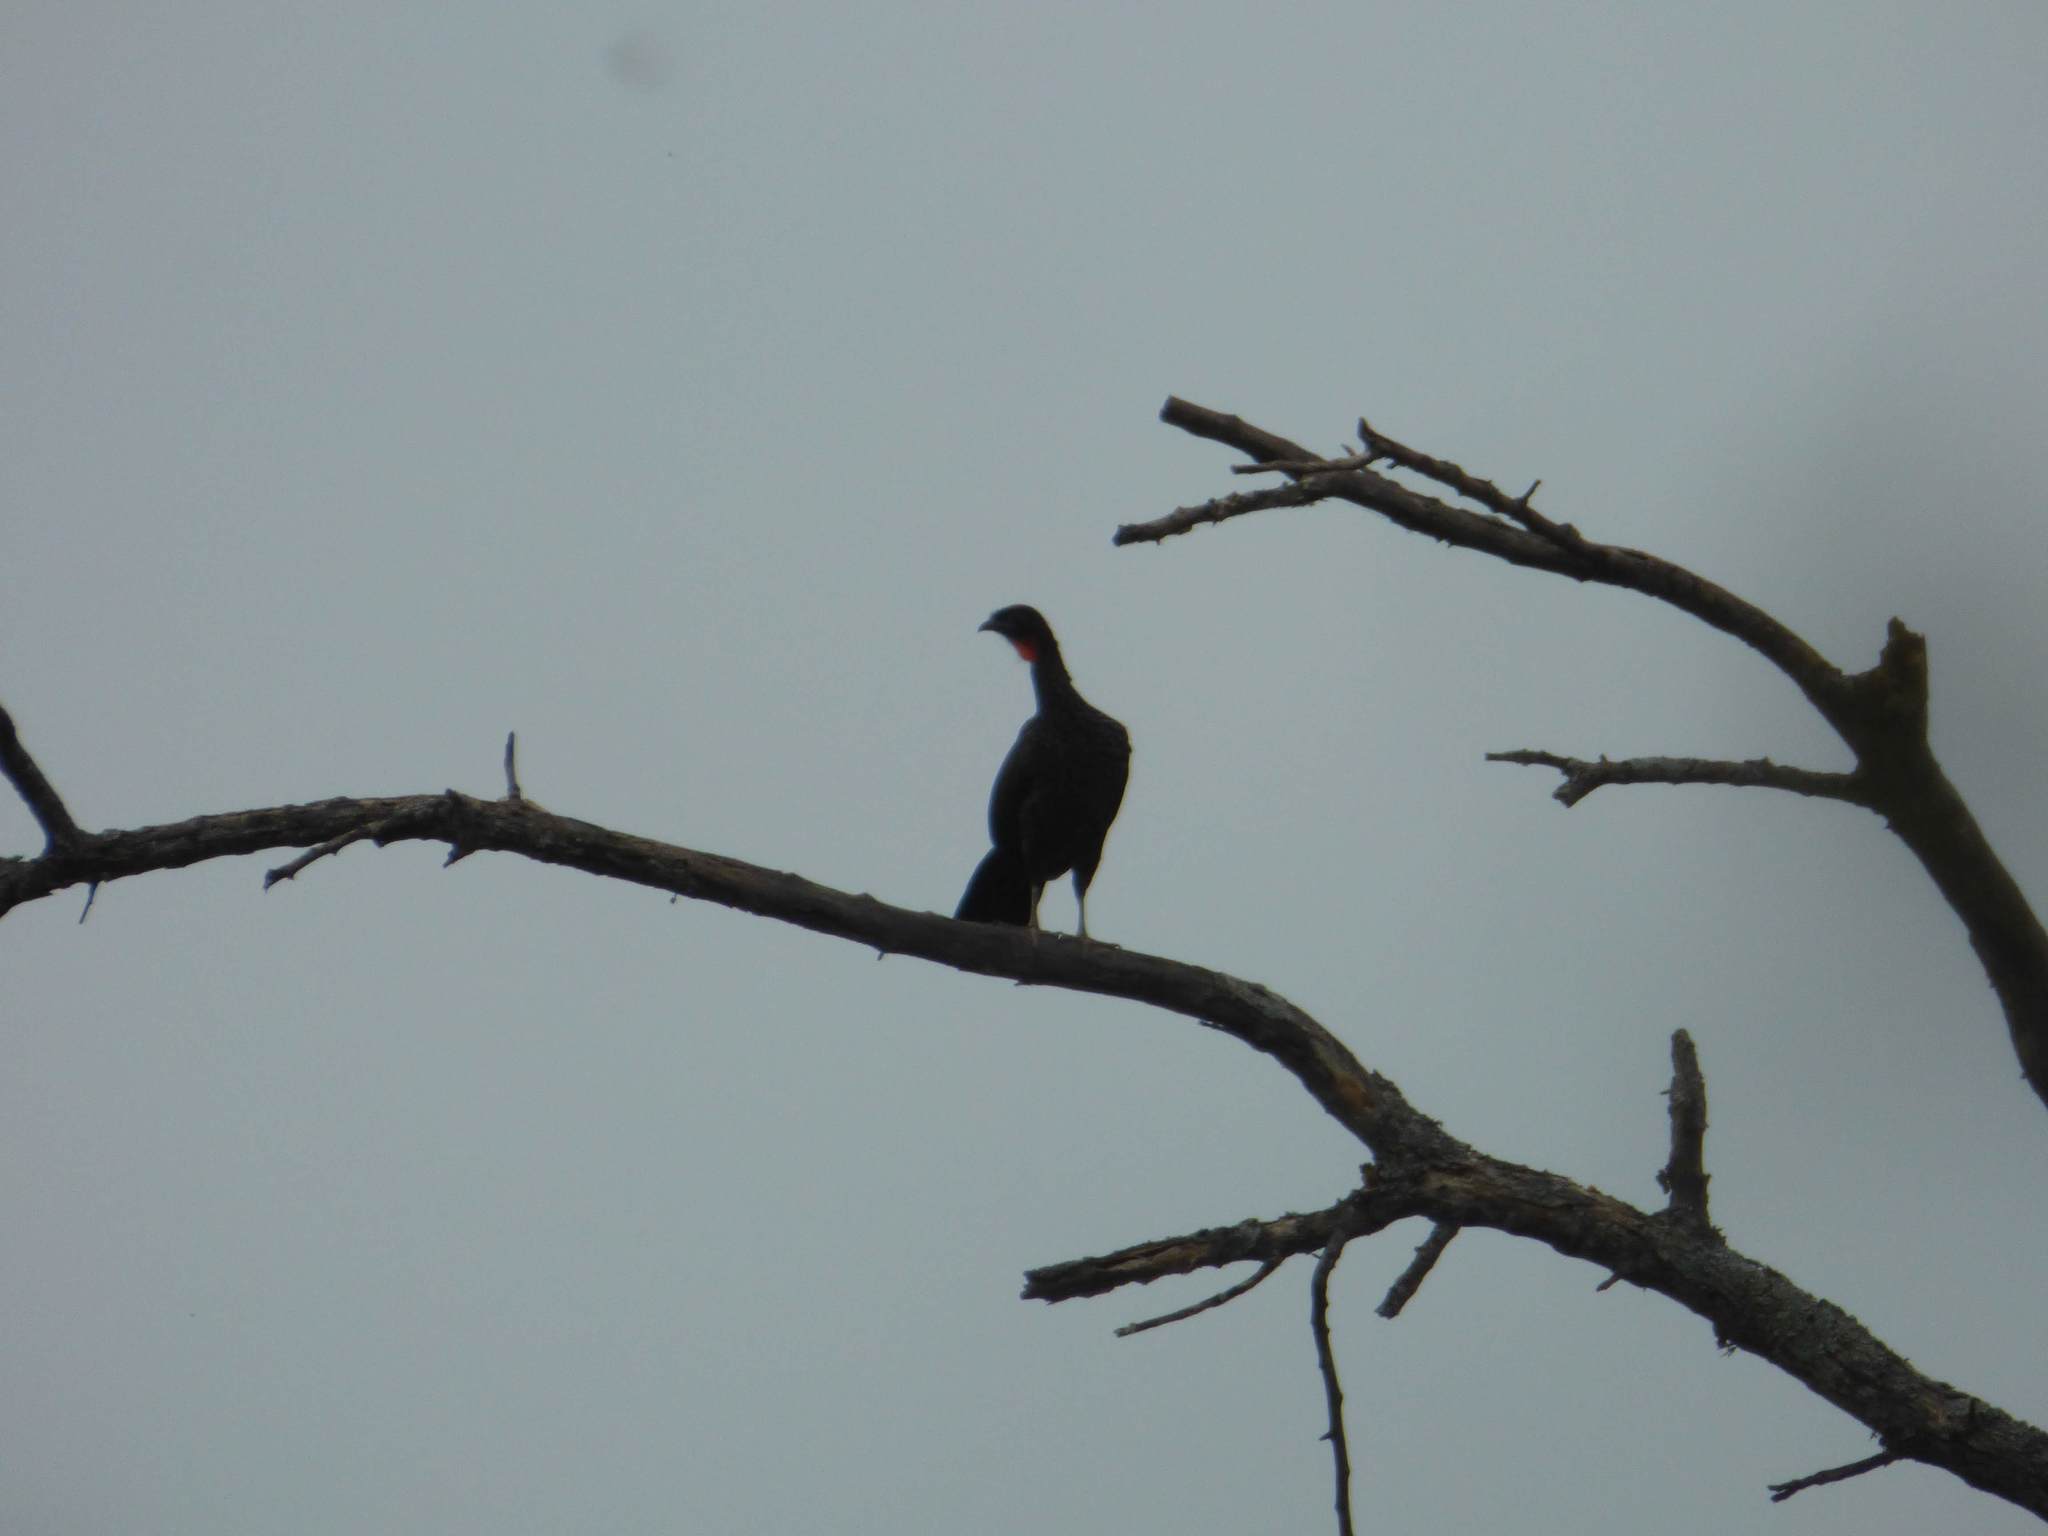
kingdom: Animalia
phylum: Chordata
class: Aves
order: Galliformes
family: Cracidae
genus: Penelope
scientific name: Penelope obscura
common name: Dusky-legged guan
